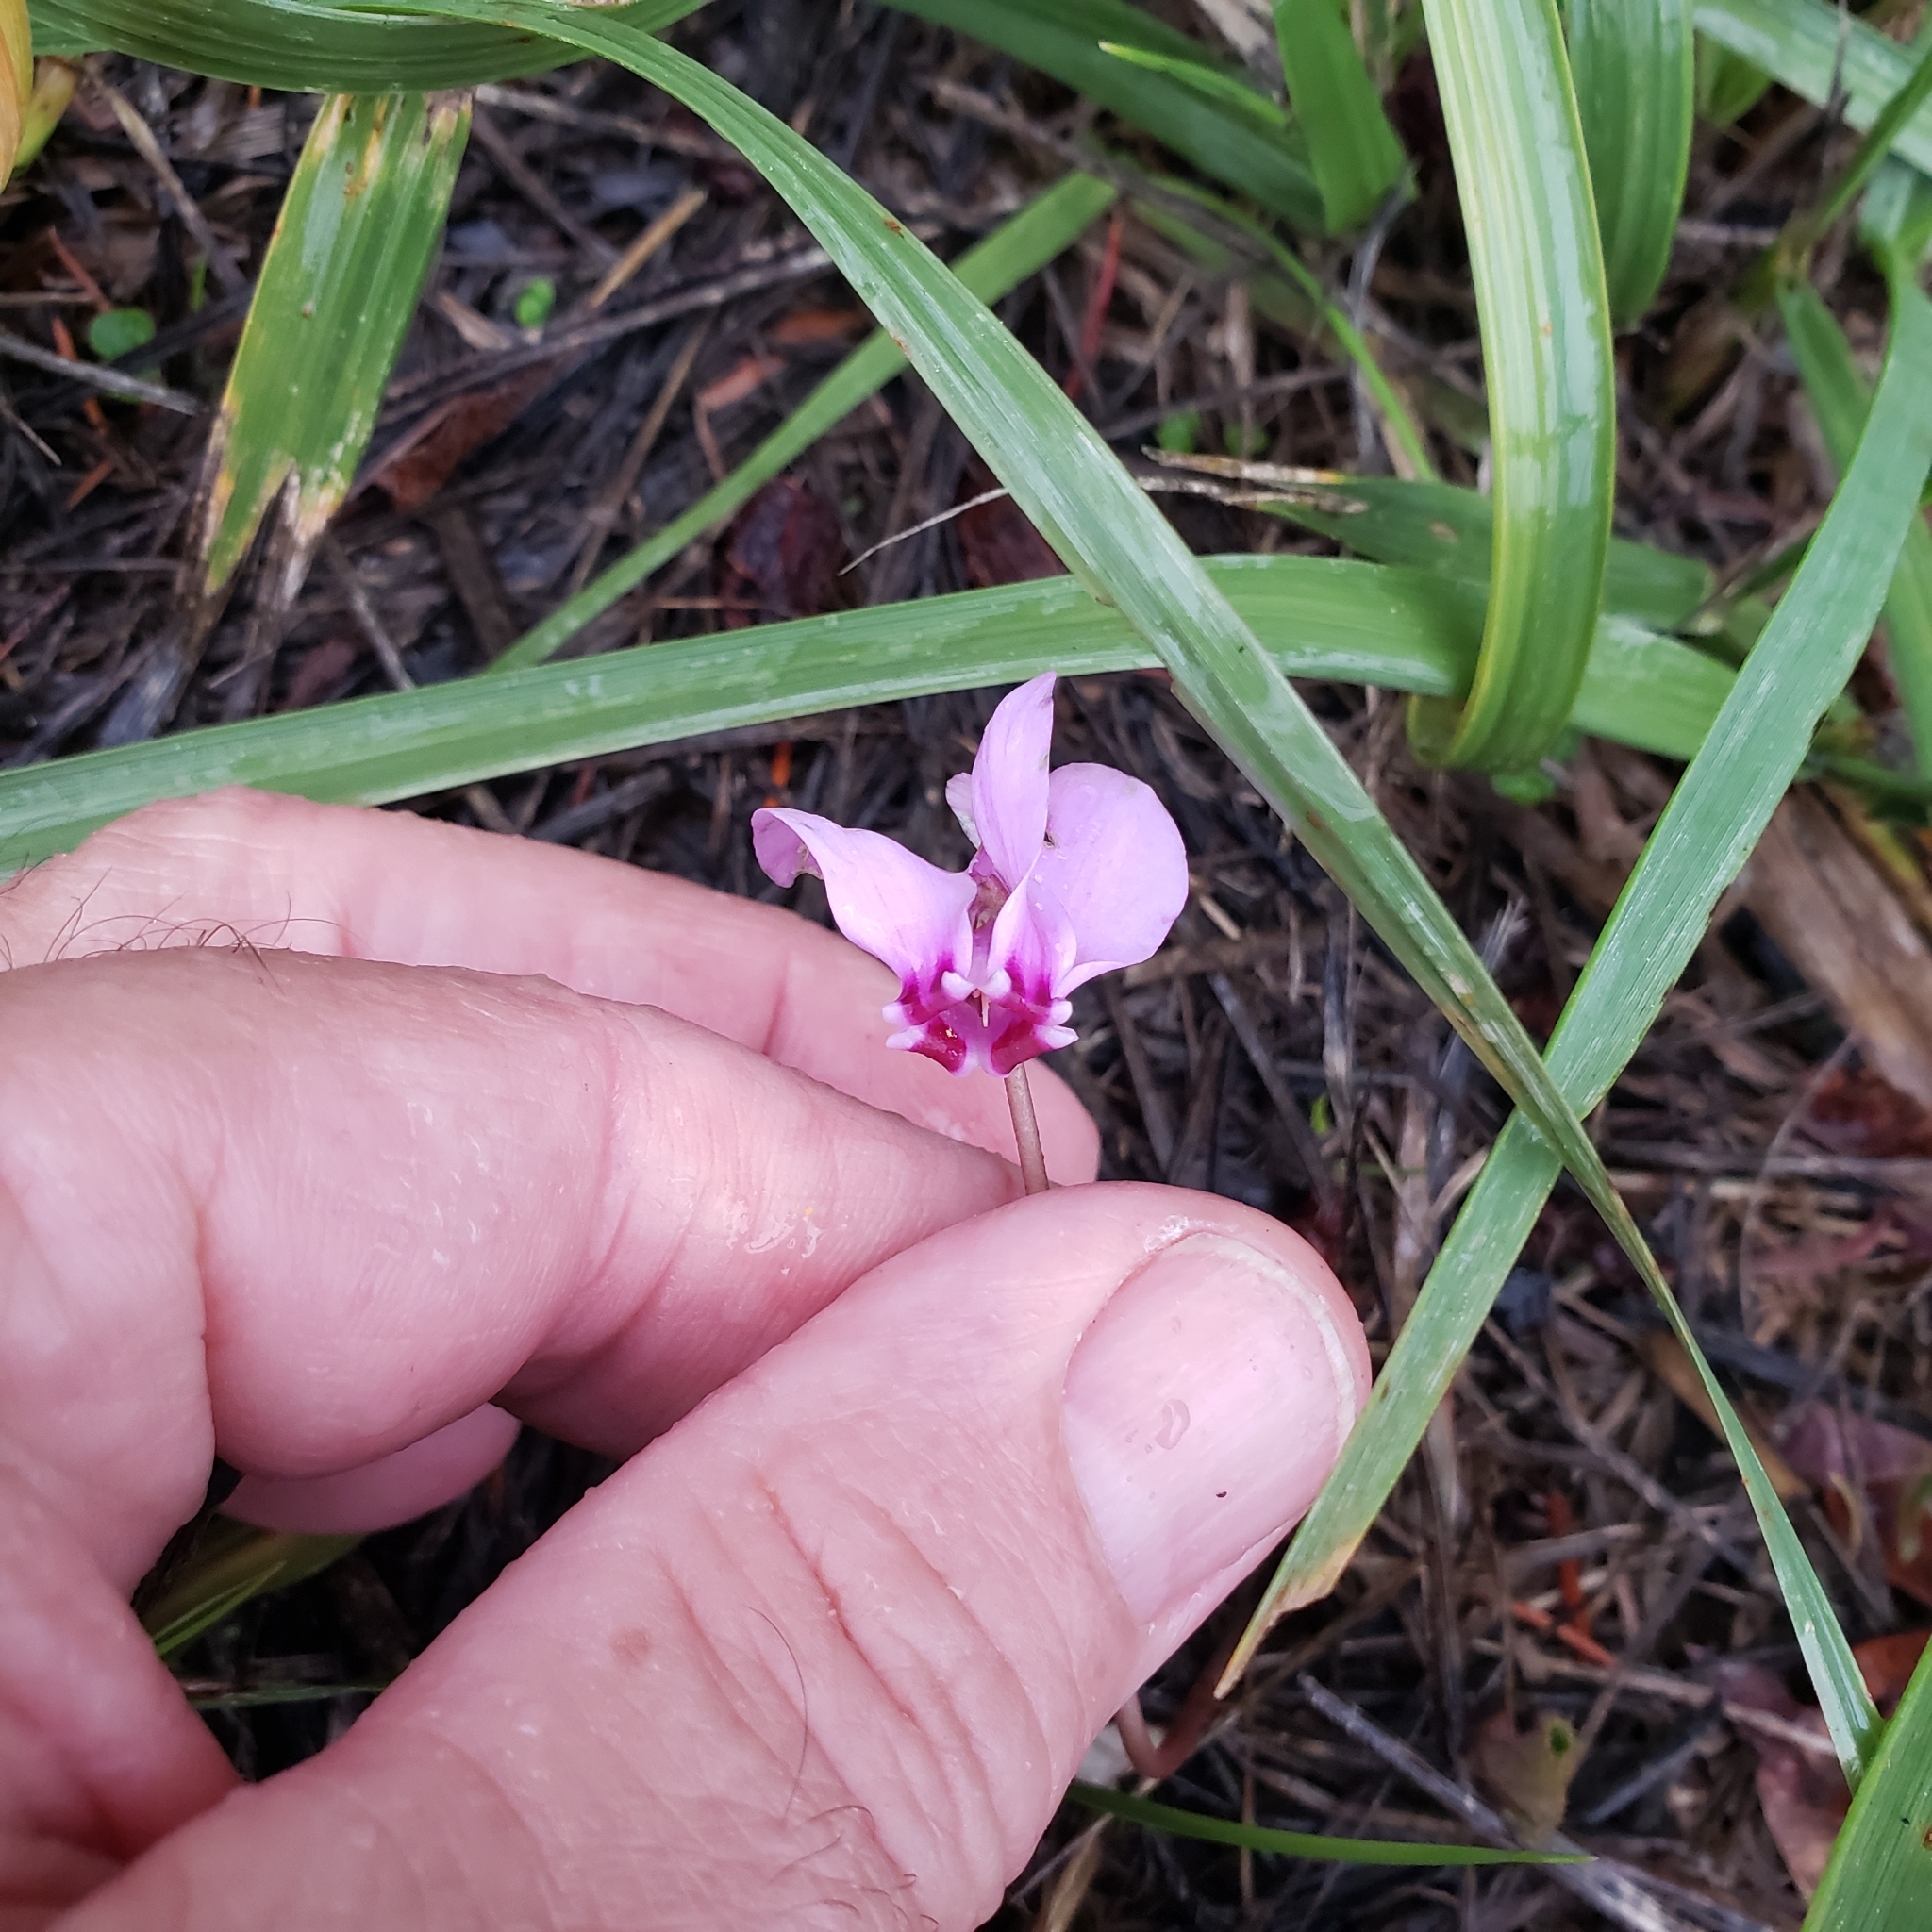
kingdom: Plantae
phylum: Tracheophyta
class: Magnoliopsida
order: Ericales
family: Primulaceae
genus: Cyclamen
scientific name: Cyclamen hederifolium
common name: Sowbread
